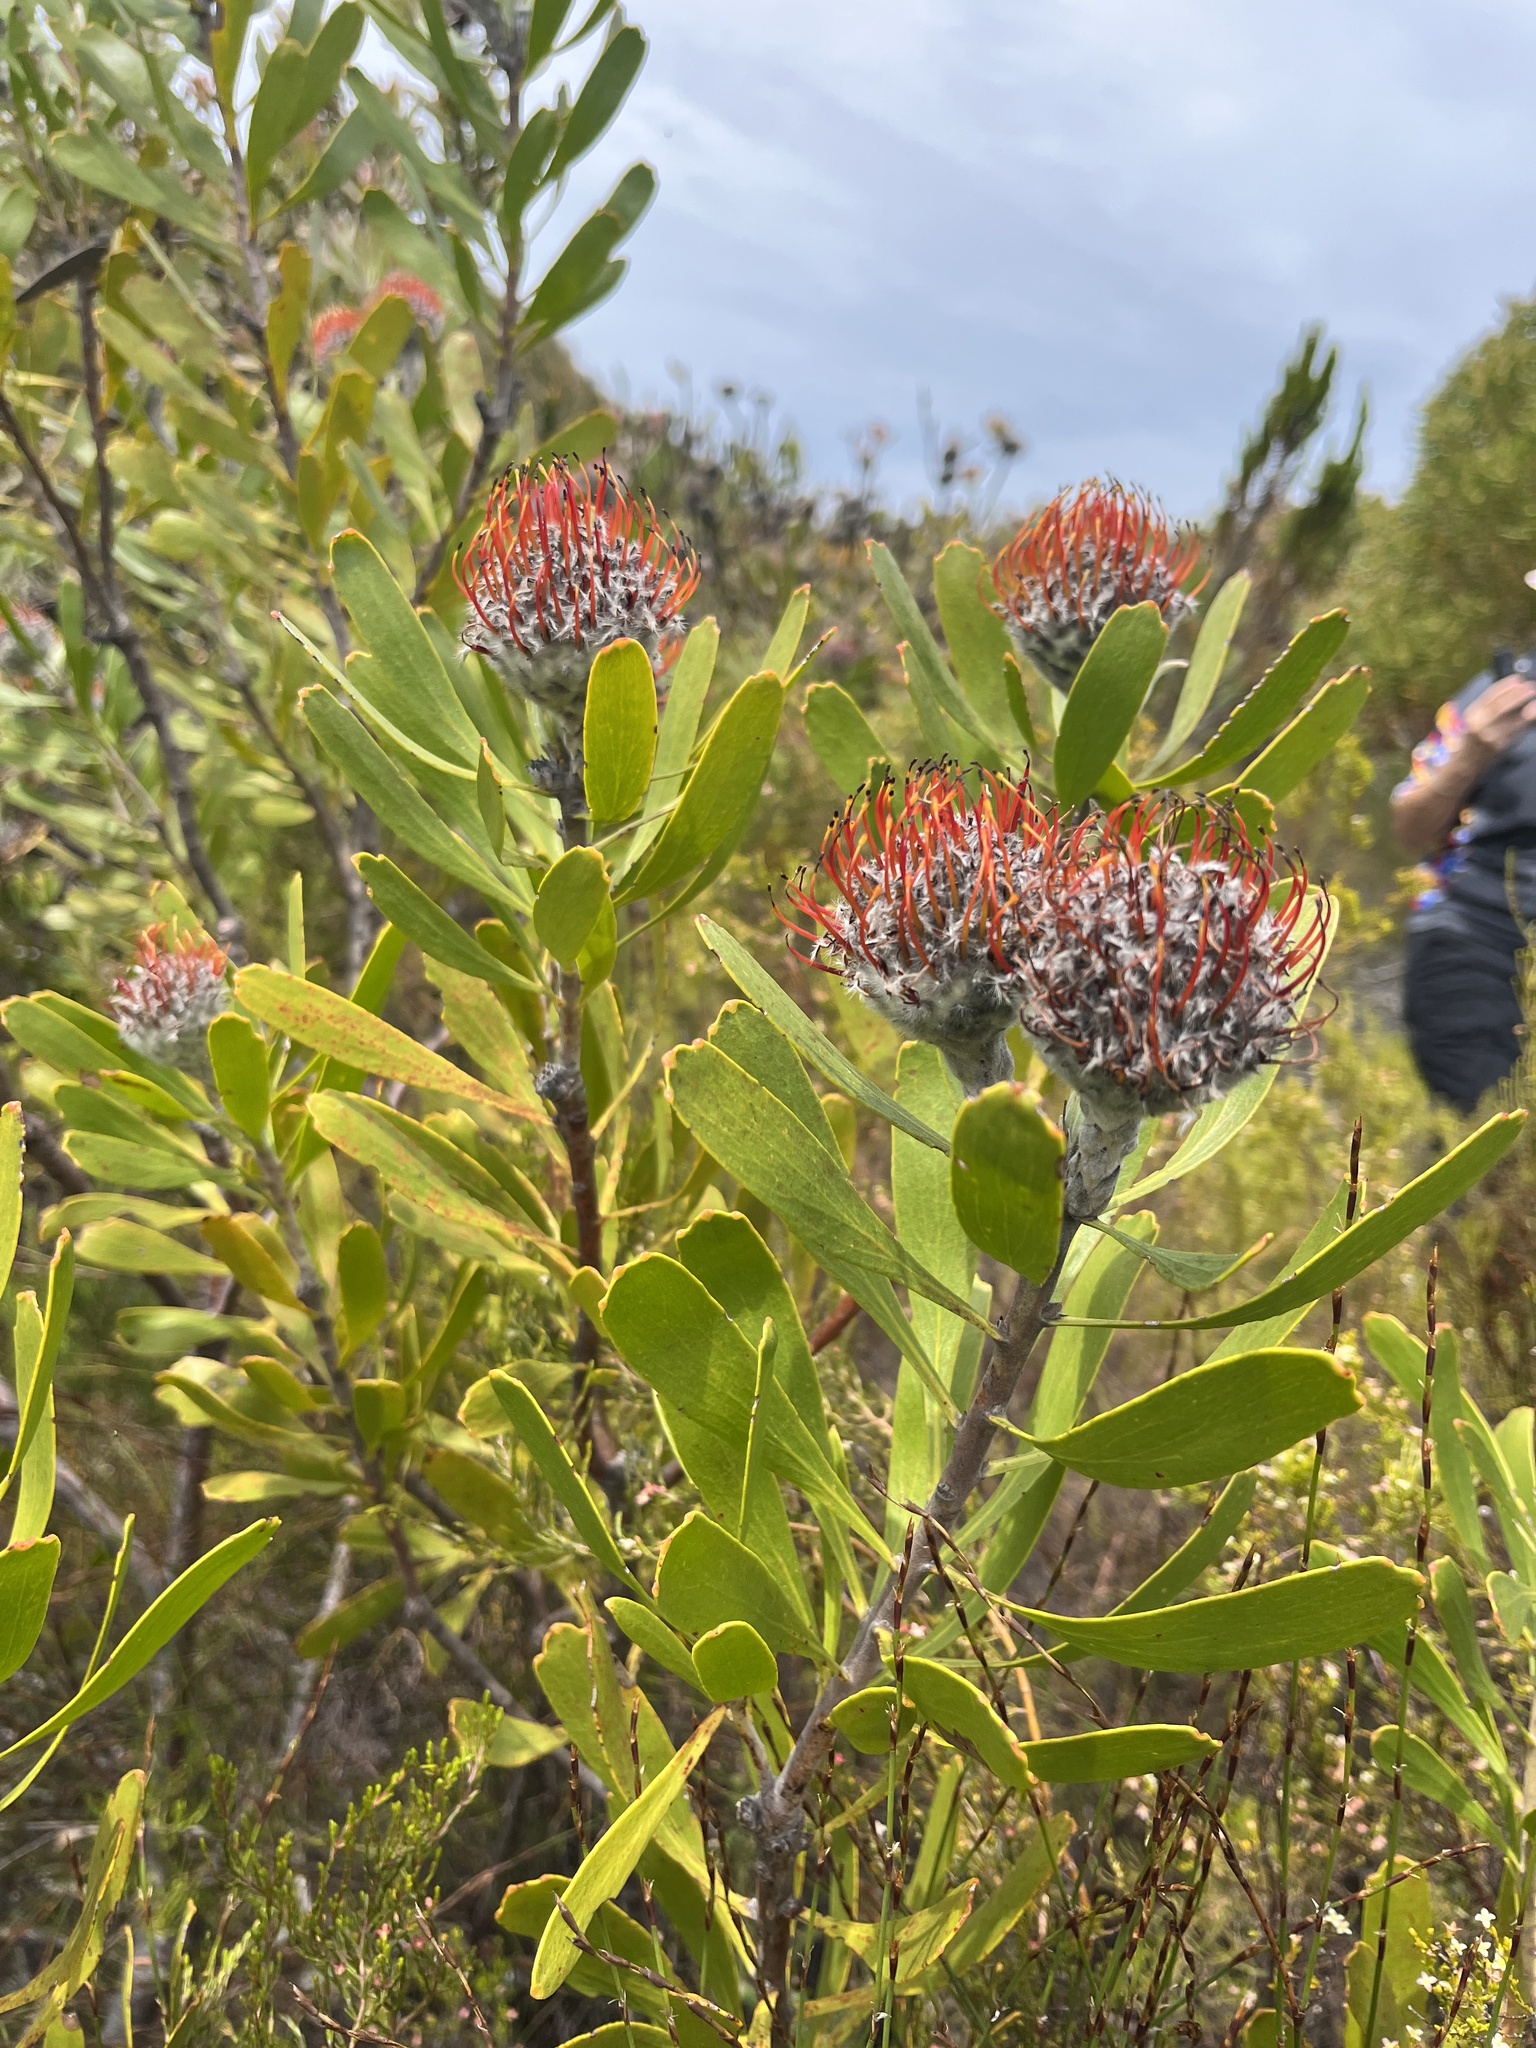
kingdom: Plantae
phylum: Tracheophyta
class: Magnoliopsida
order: Proteales
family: Proteaceae
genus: Leucospermum
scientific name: Leucospermum truncatum
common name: Limestone pincushion
